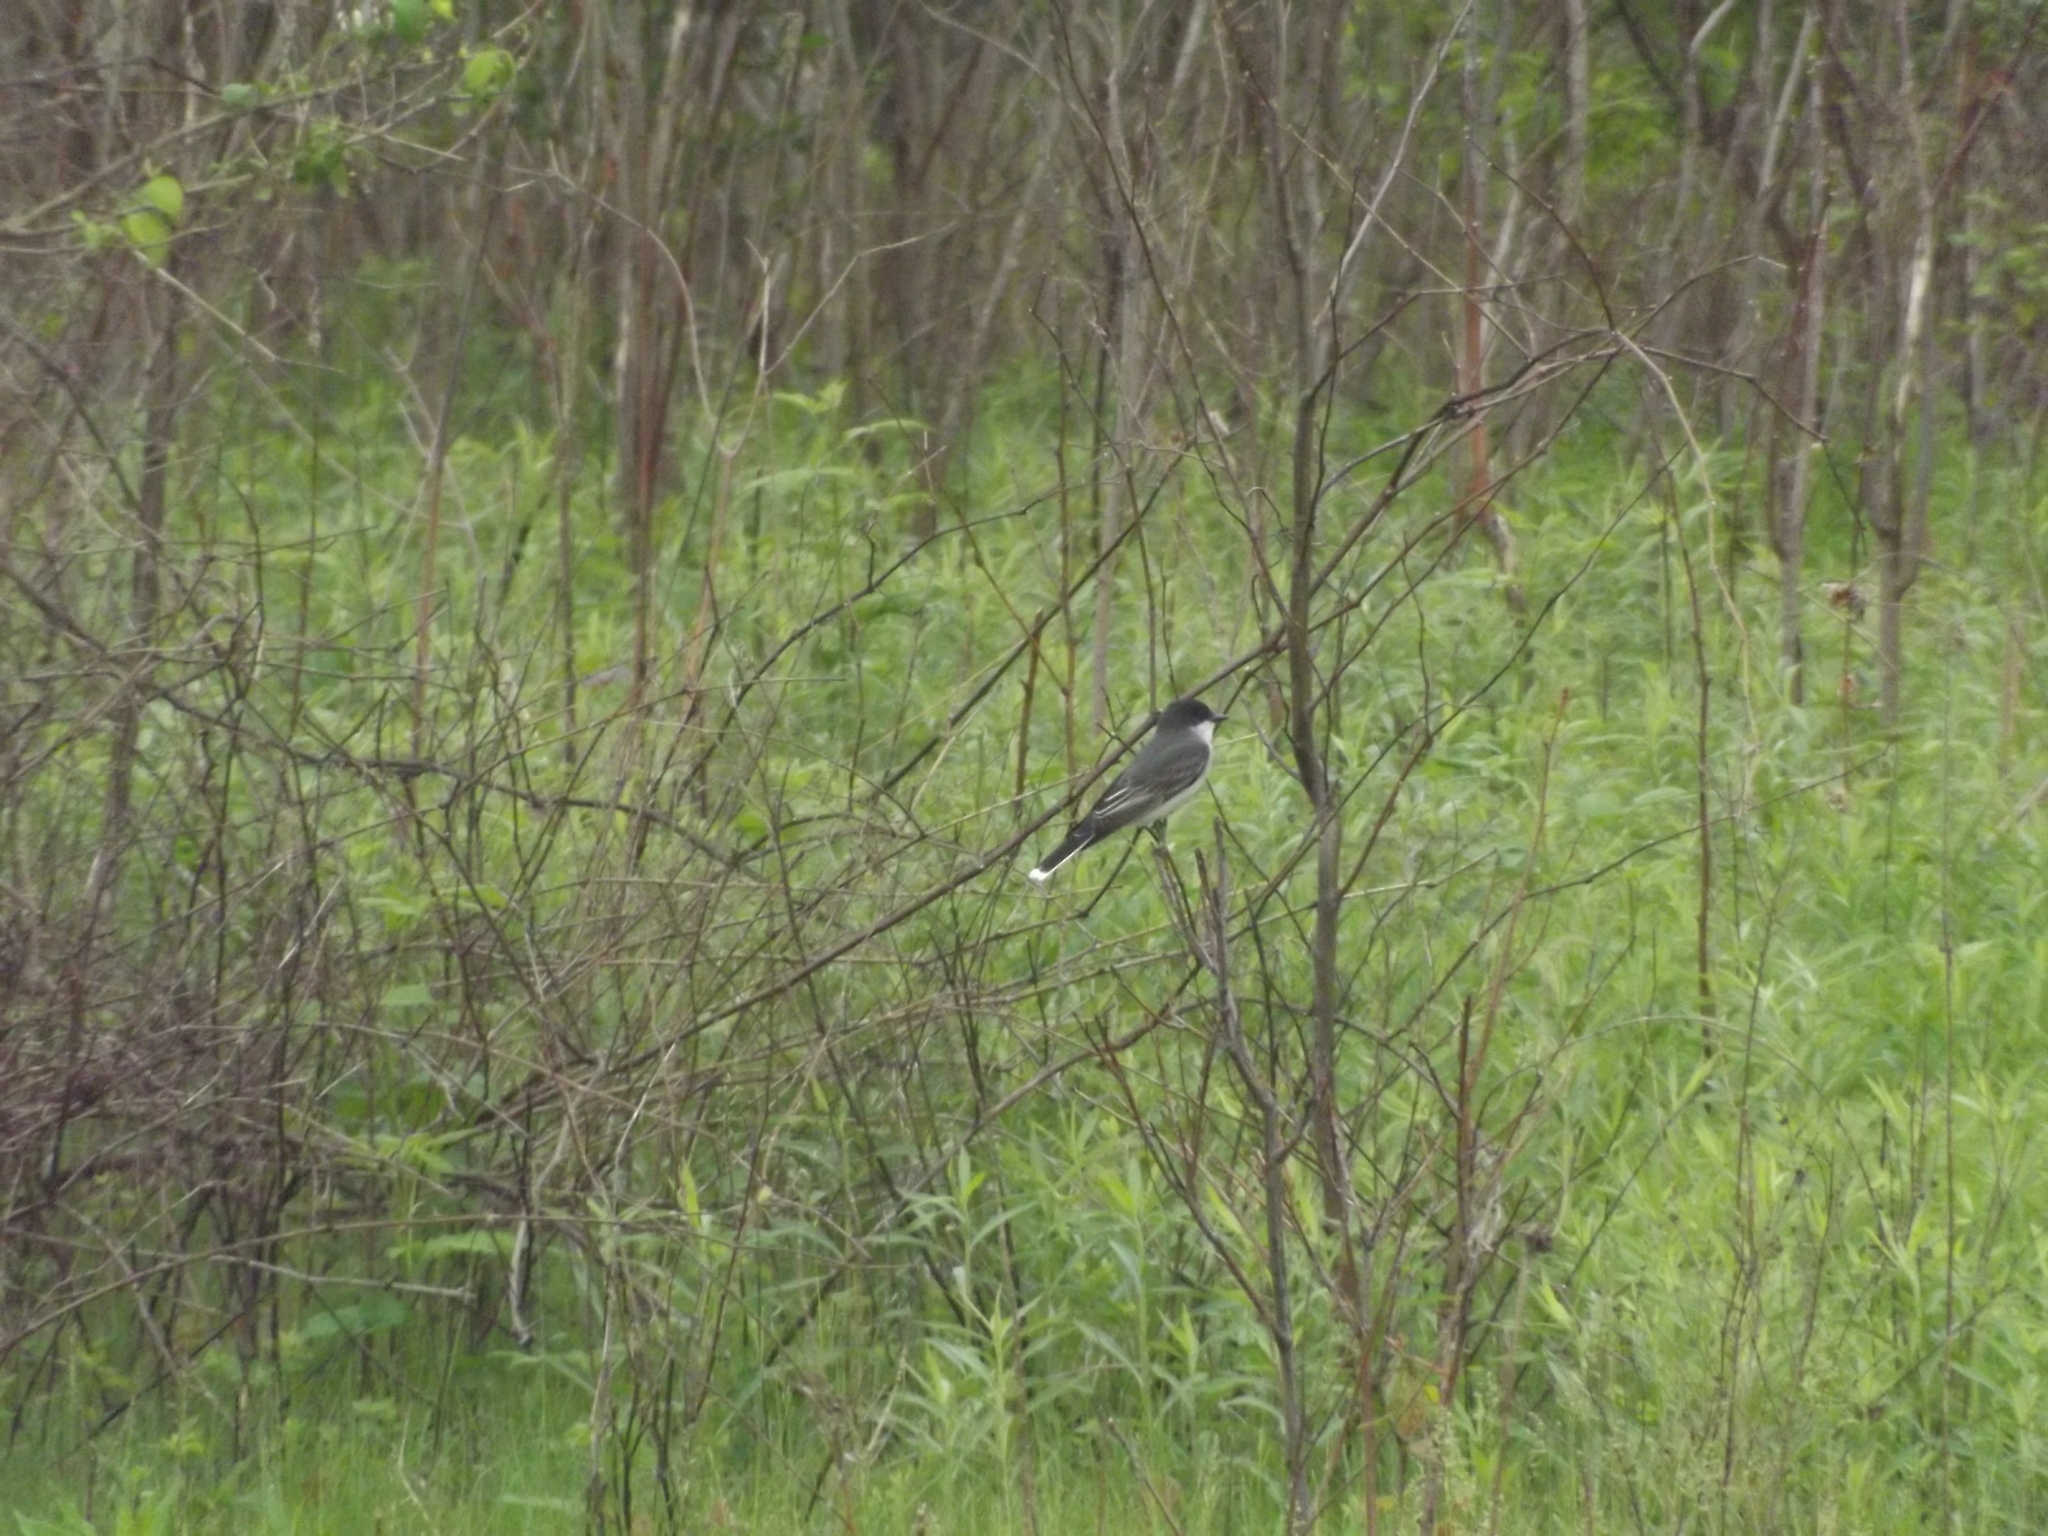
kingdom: Animalia
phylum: Chordata
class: Aves
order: Passeriformes
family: Tyrannidae
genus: Tyrannus
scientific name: Tyrannus tyrannus
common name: Eastern kingbird
